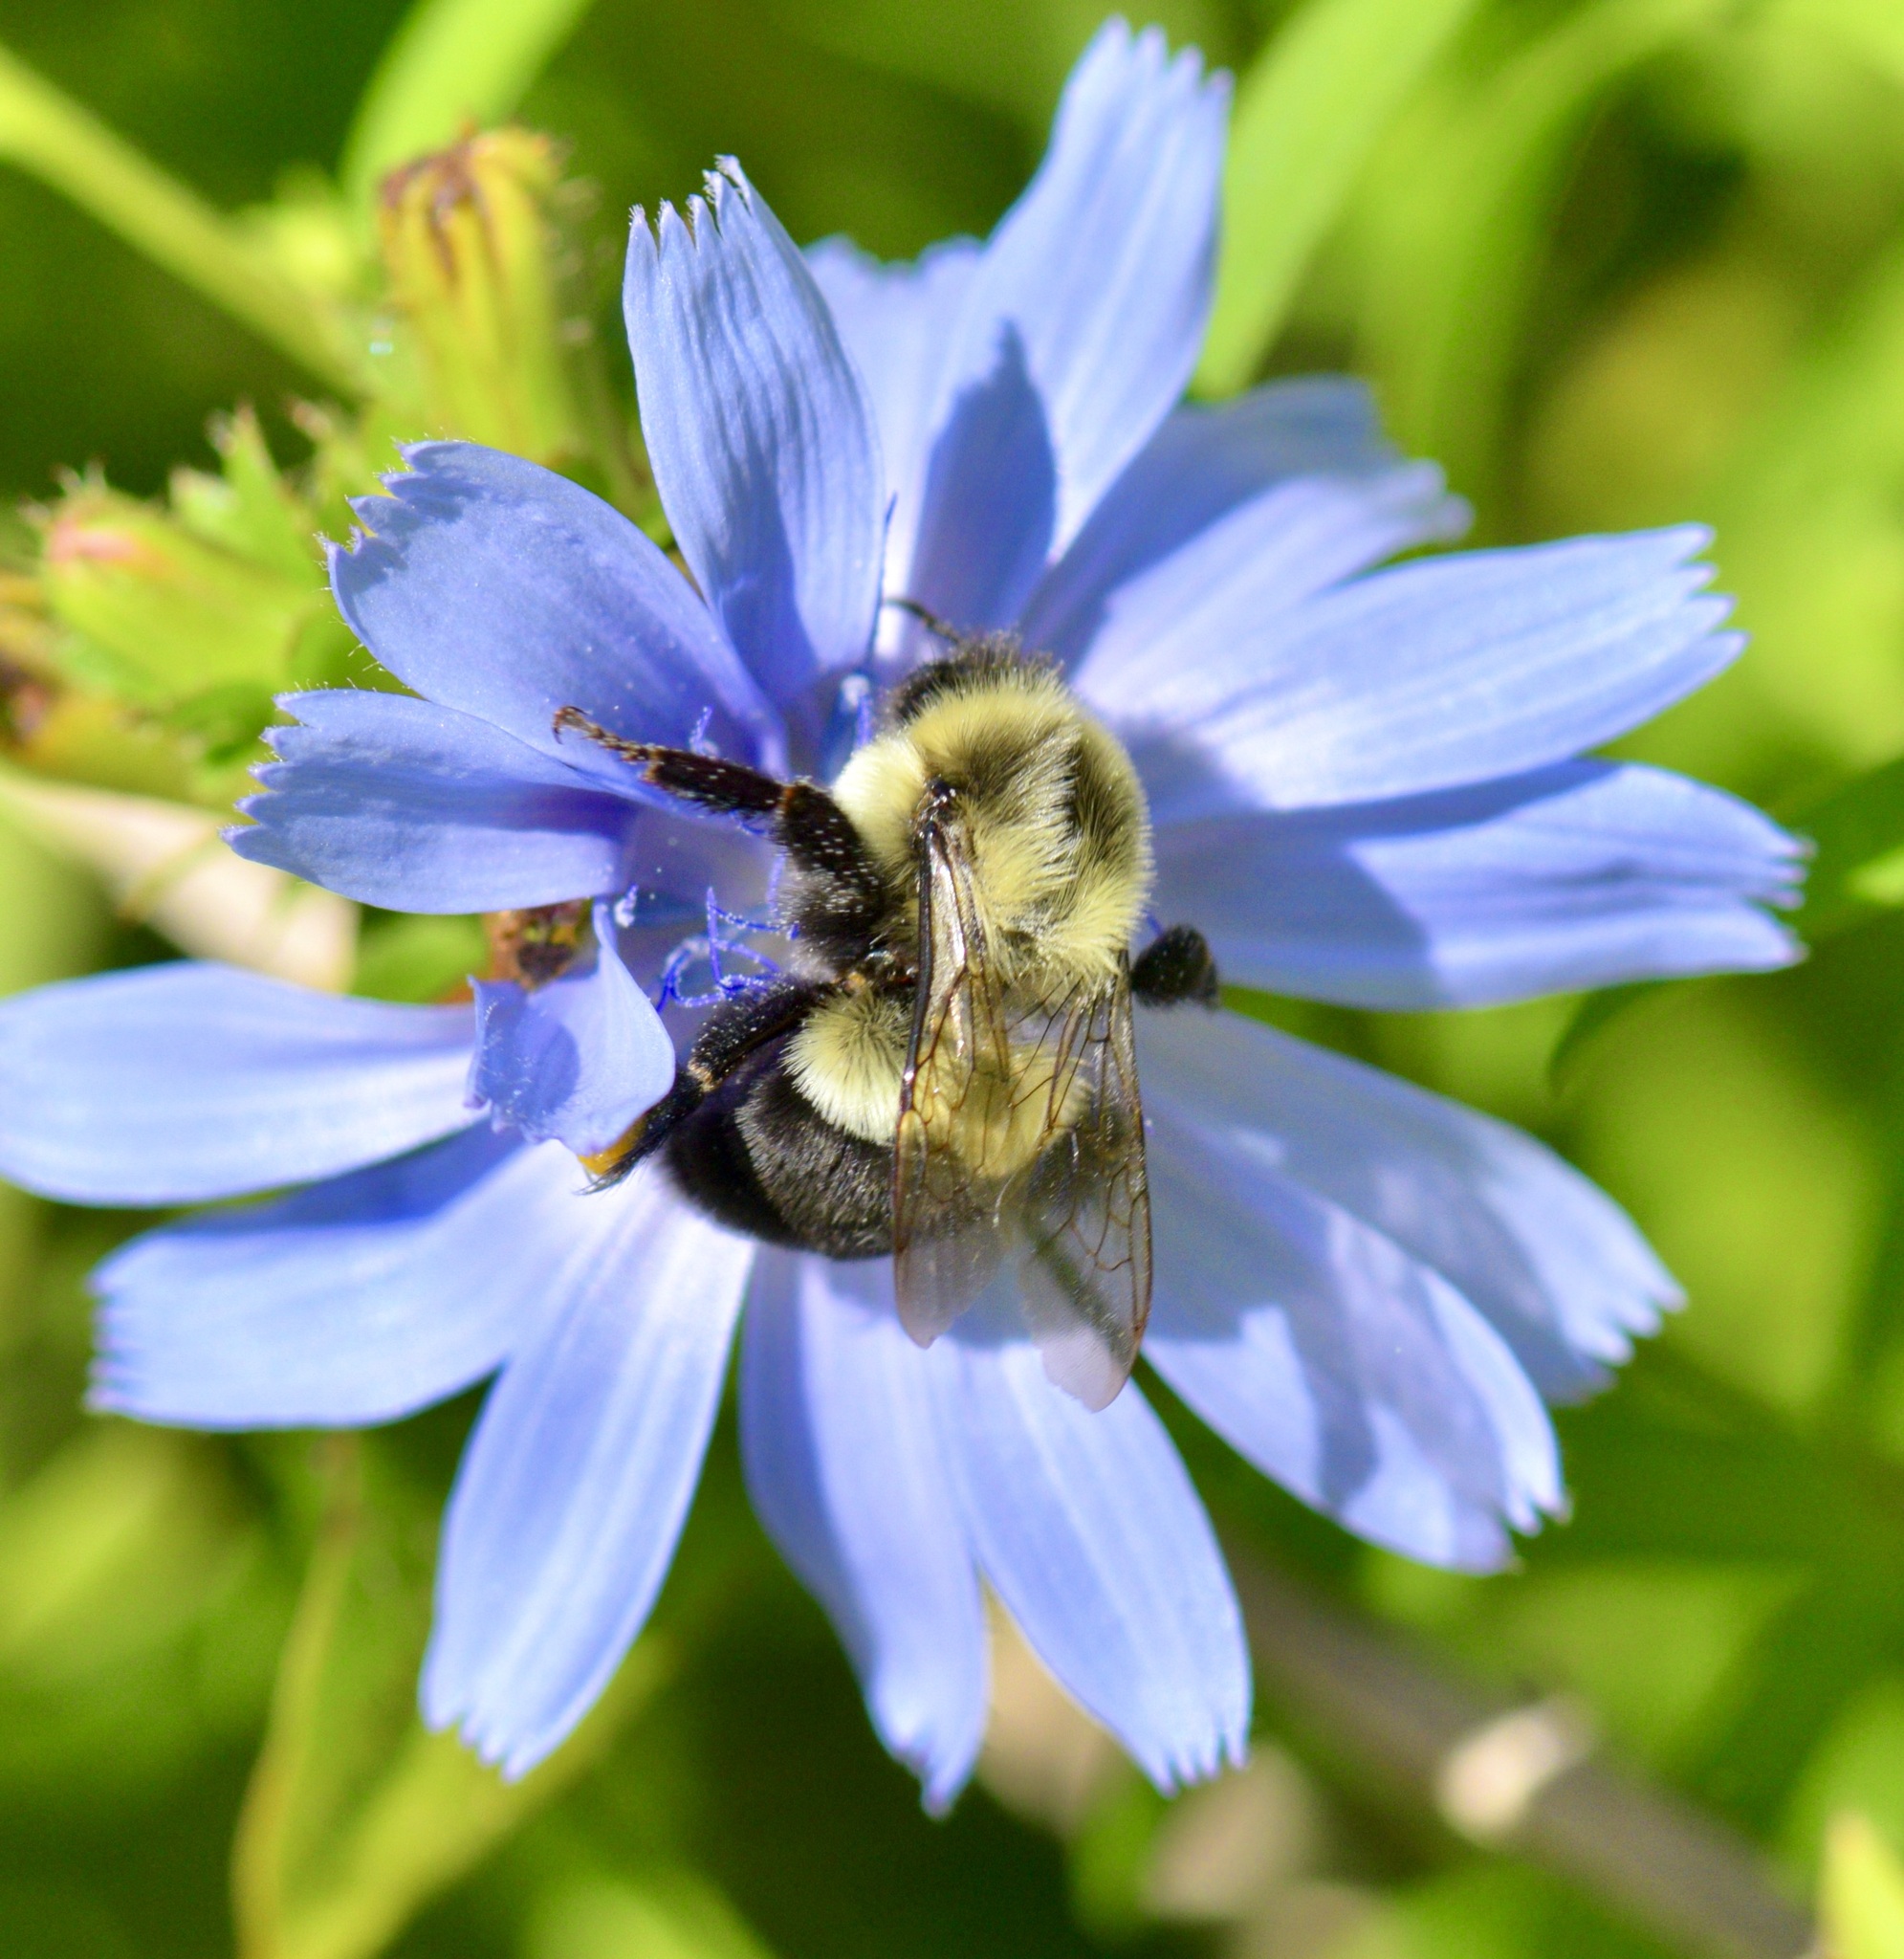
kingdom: Animalia
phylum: Arthropoda
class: Insecta
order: Hymenoptera
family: Apidae
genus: Bombus
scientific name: Bombus impatiens
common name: Common eastern bumble bee
